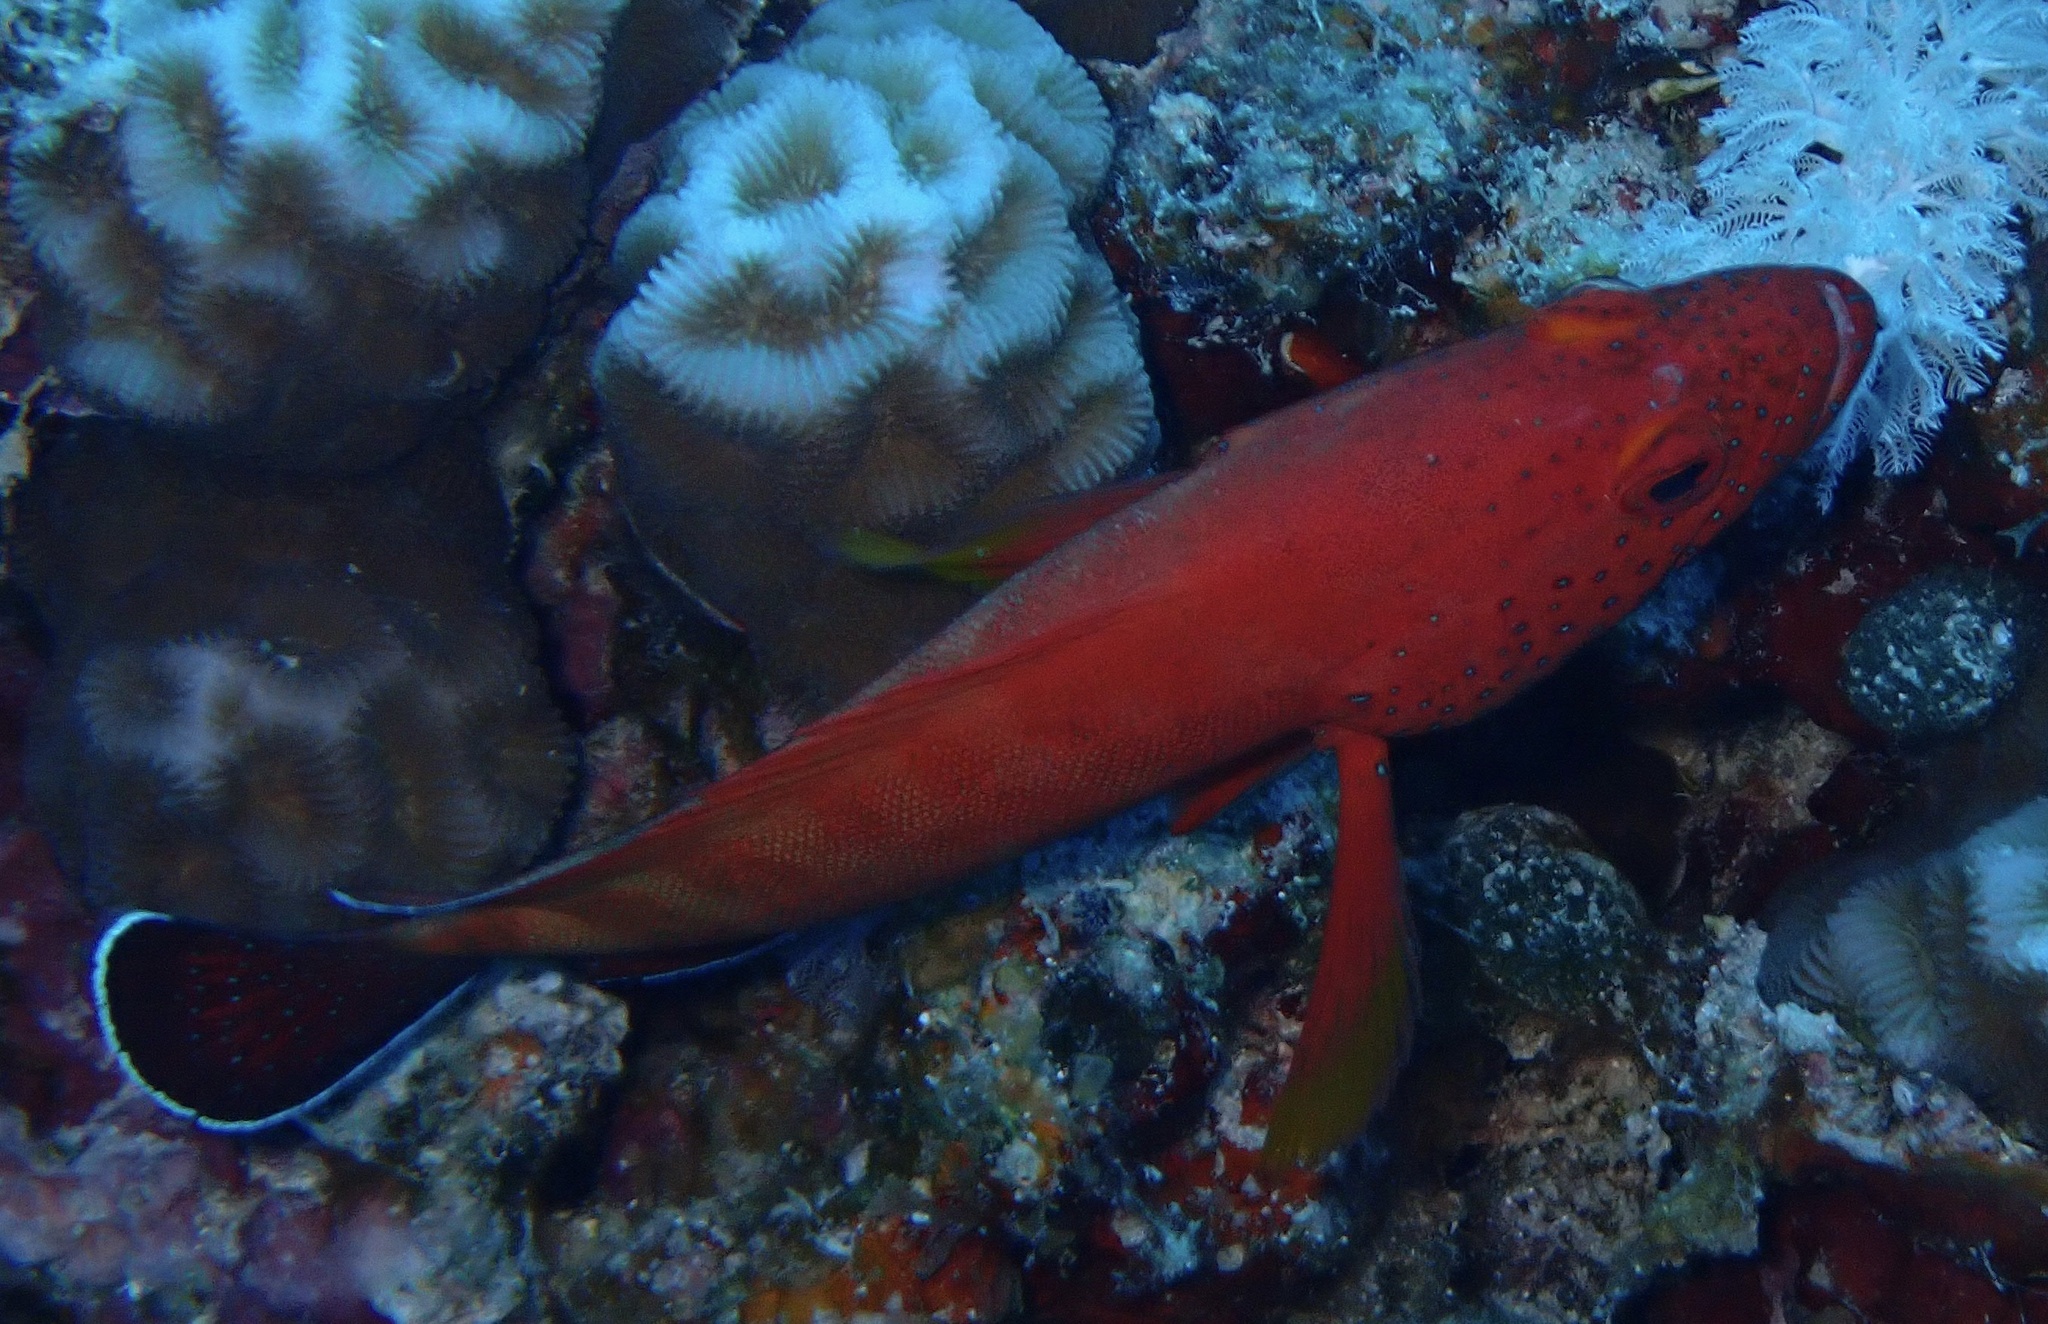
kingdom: Animalia
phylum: Chordata
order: Perciformes
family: Serranidae
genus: Cephalopholis
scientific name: Cephalopholis hemistiktos
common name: Halfspotted hind
